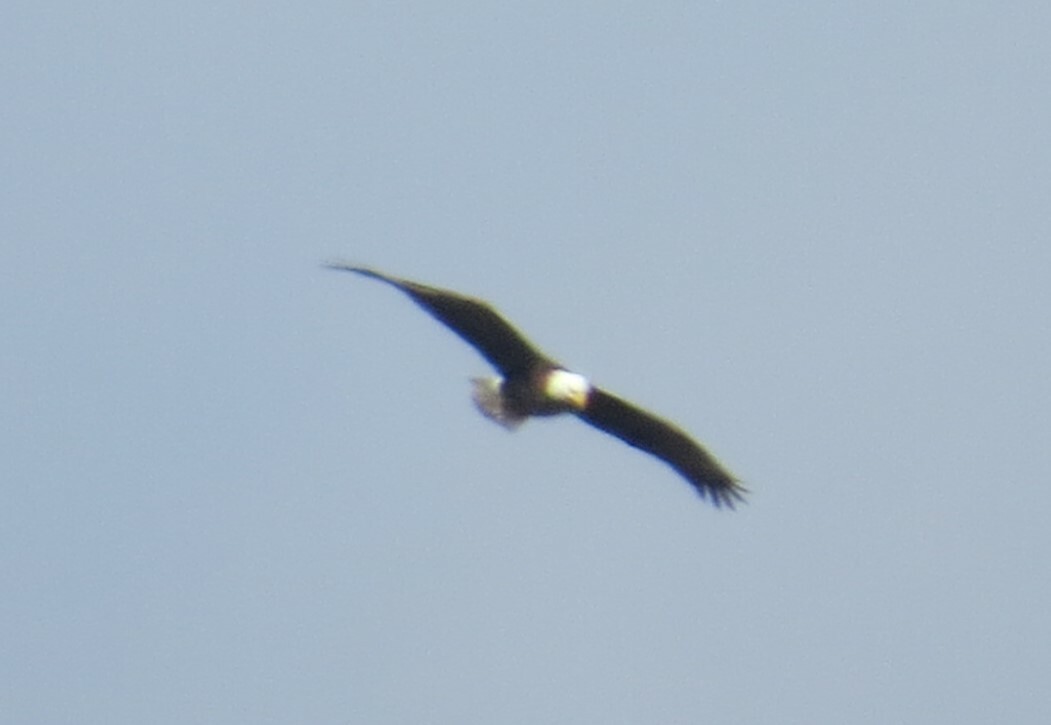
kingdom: Animalia
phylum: Chordata
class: Aves
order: Accipitriformes
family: Accipitridae
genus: Haliaeetus
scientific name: Haliaeetus leucocephalus
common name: Bald eagle
